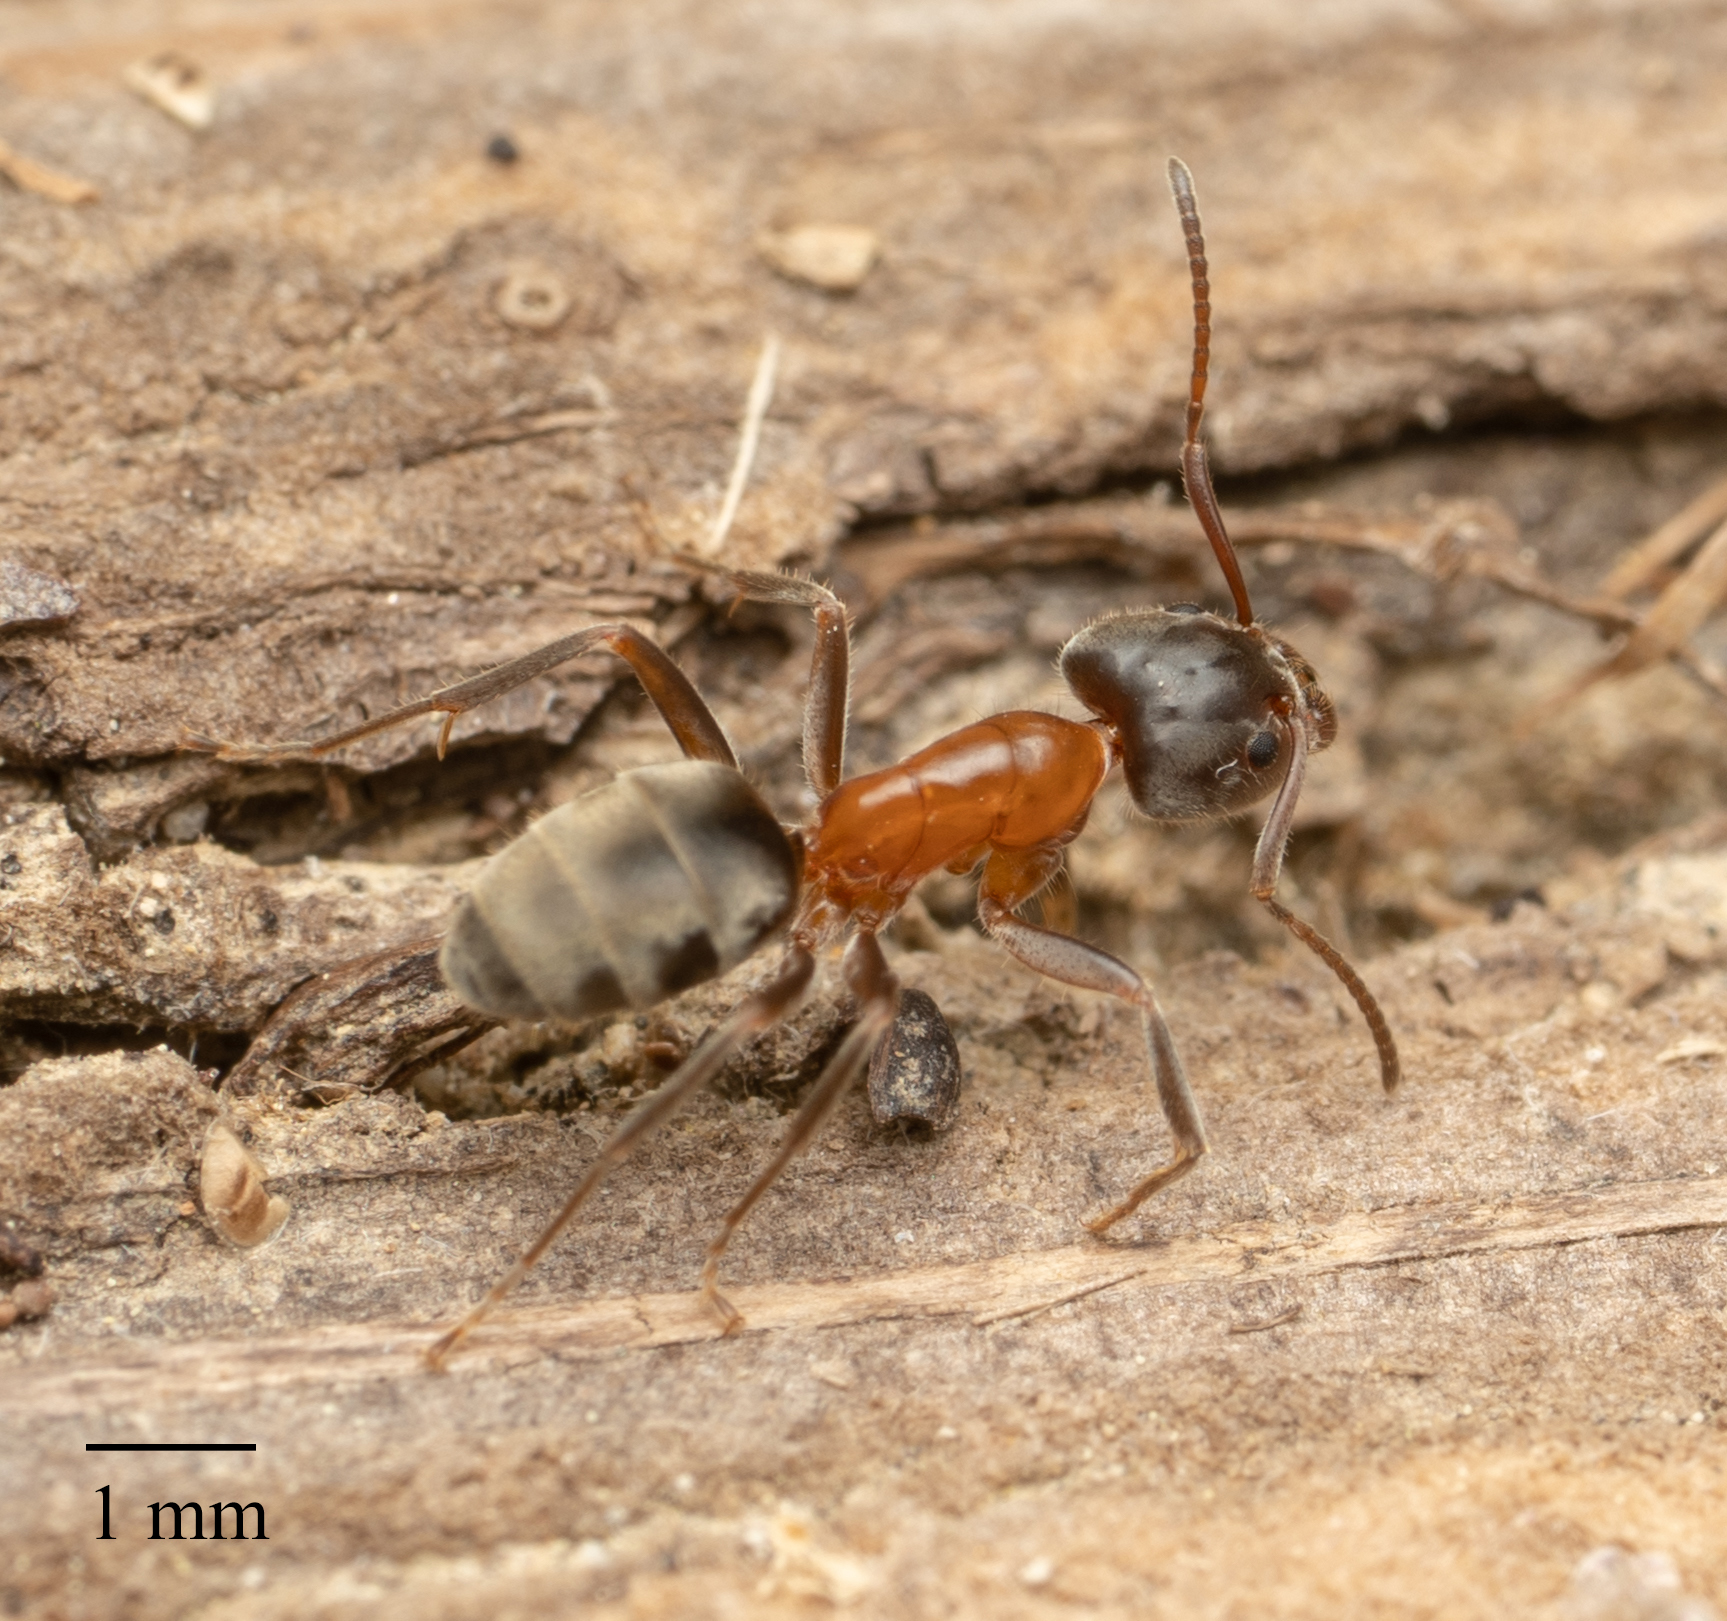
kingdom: Animalia
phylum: Arthropoda
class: Insecta
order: Hymenoptera
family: Formicidae
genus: Liometopum
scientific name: Liometopum occidentale
